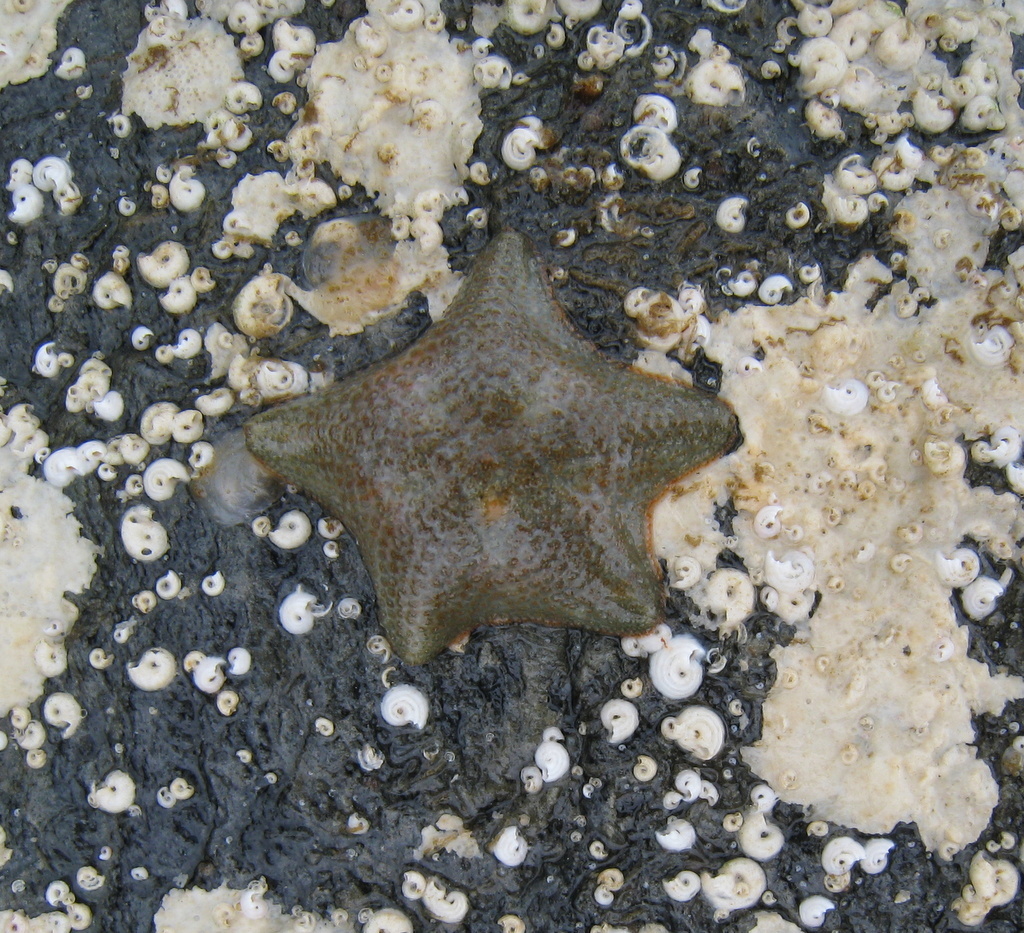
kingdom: Animalia
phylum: Echinodermata
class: Asteroidea
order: Valvatida
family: Asterinidae
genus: Asterina
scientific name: Asterina gibbosa
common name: Cushion star
